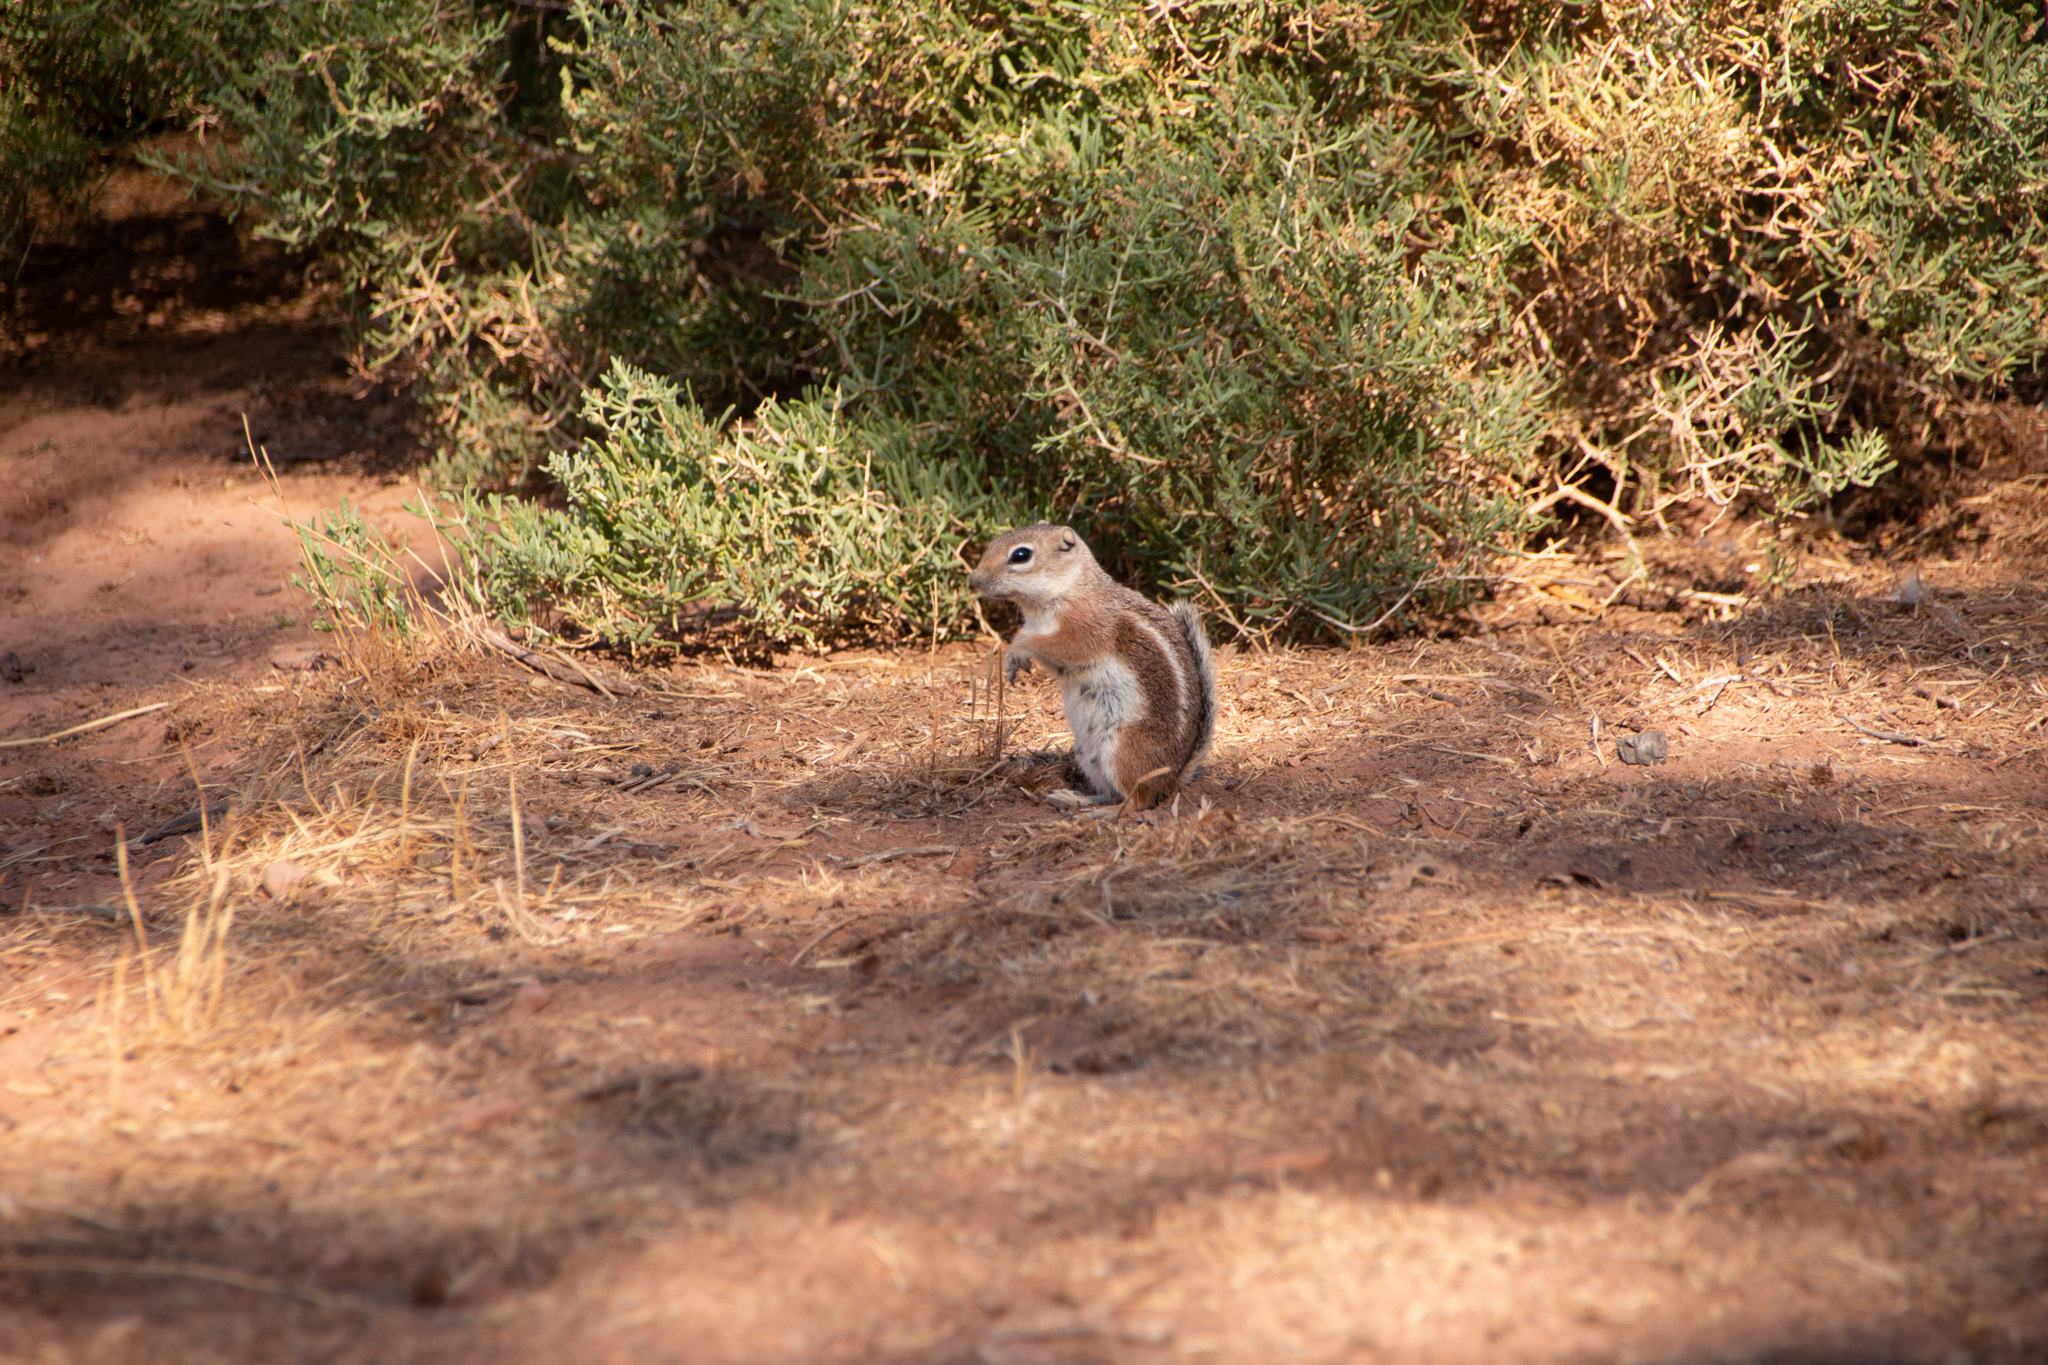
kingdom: Animalia
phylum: Chordata
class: Mammalia
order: Rodentia
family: Sciuridae
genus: Ammospermophilus
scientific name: Ammospermophilus leucurus
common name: White-tailed antelope squirrel
